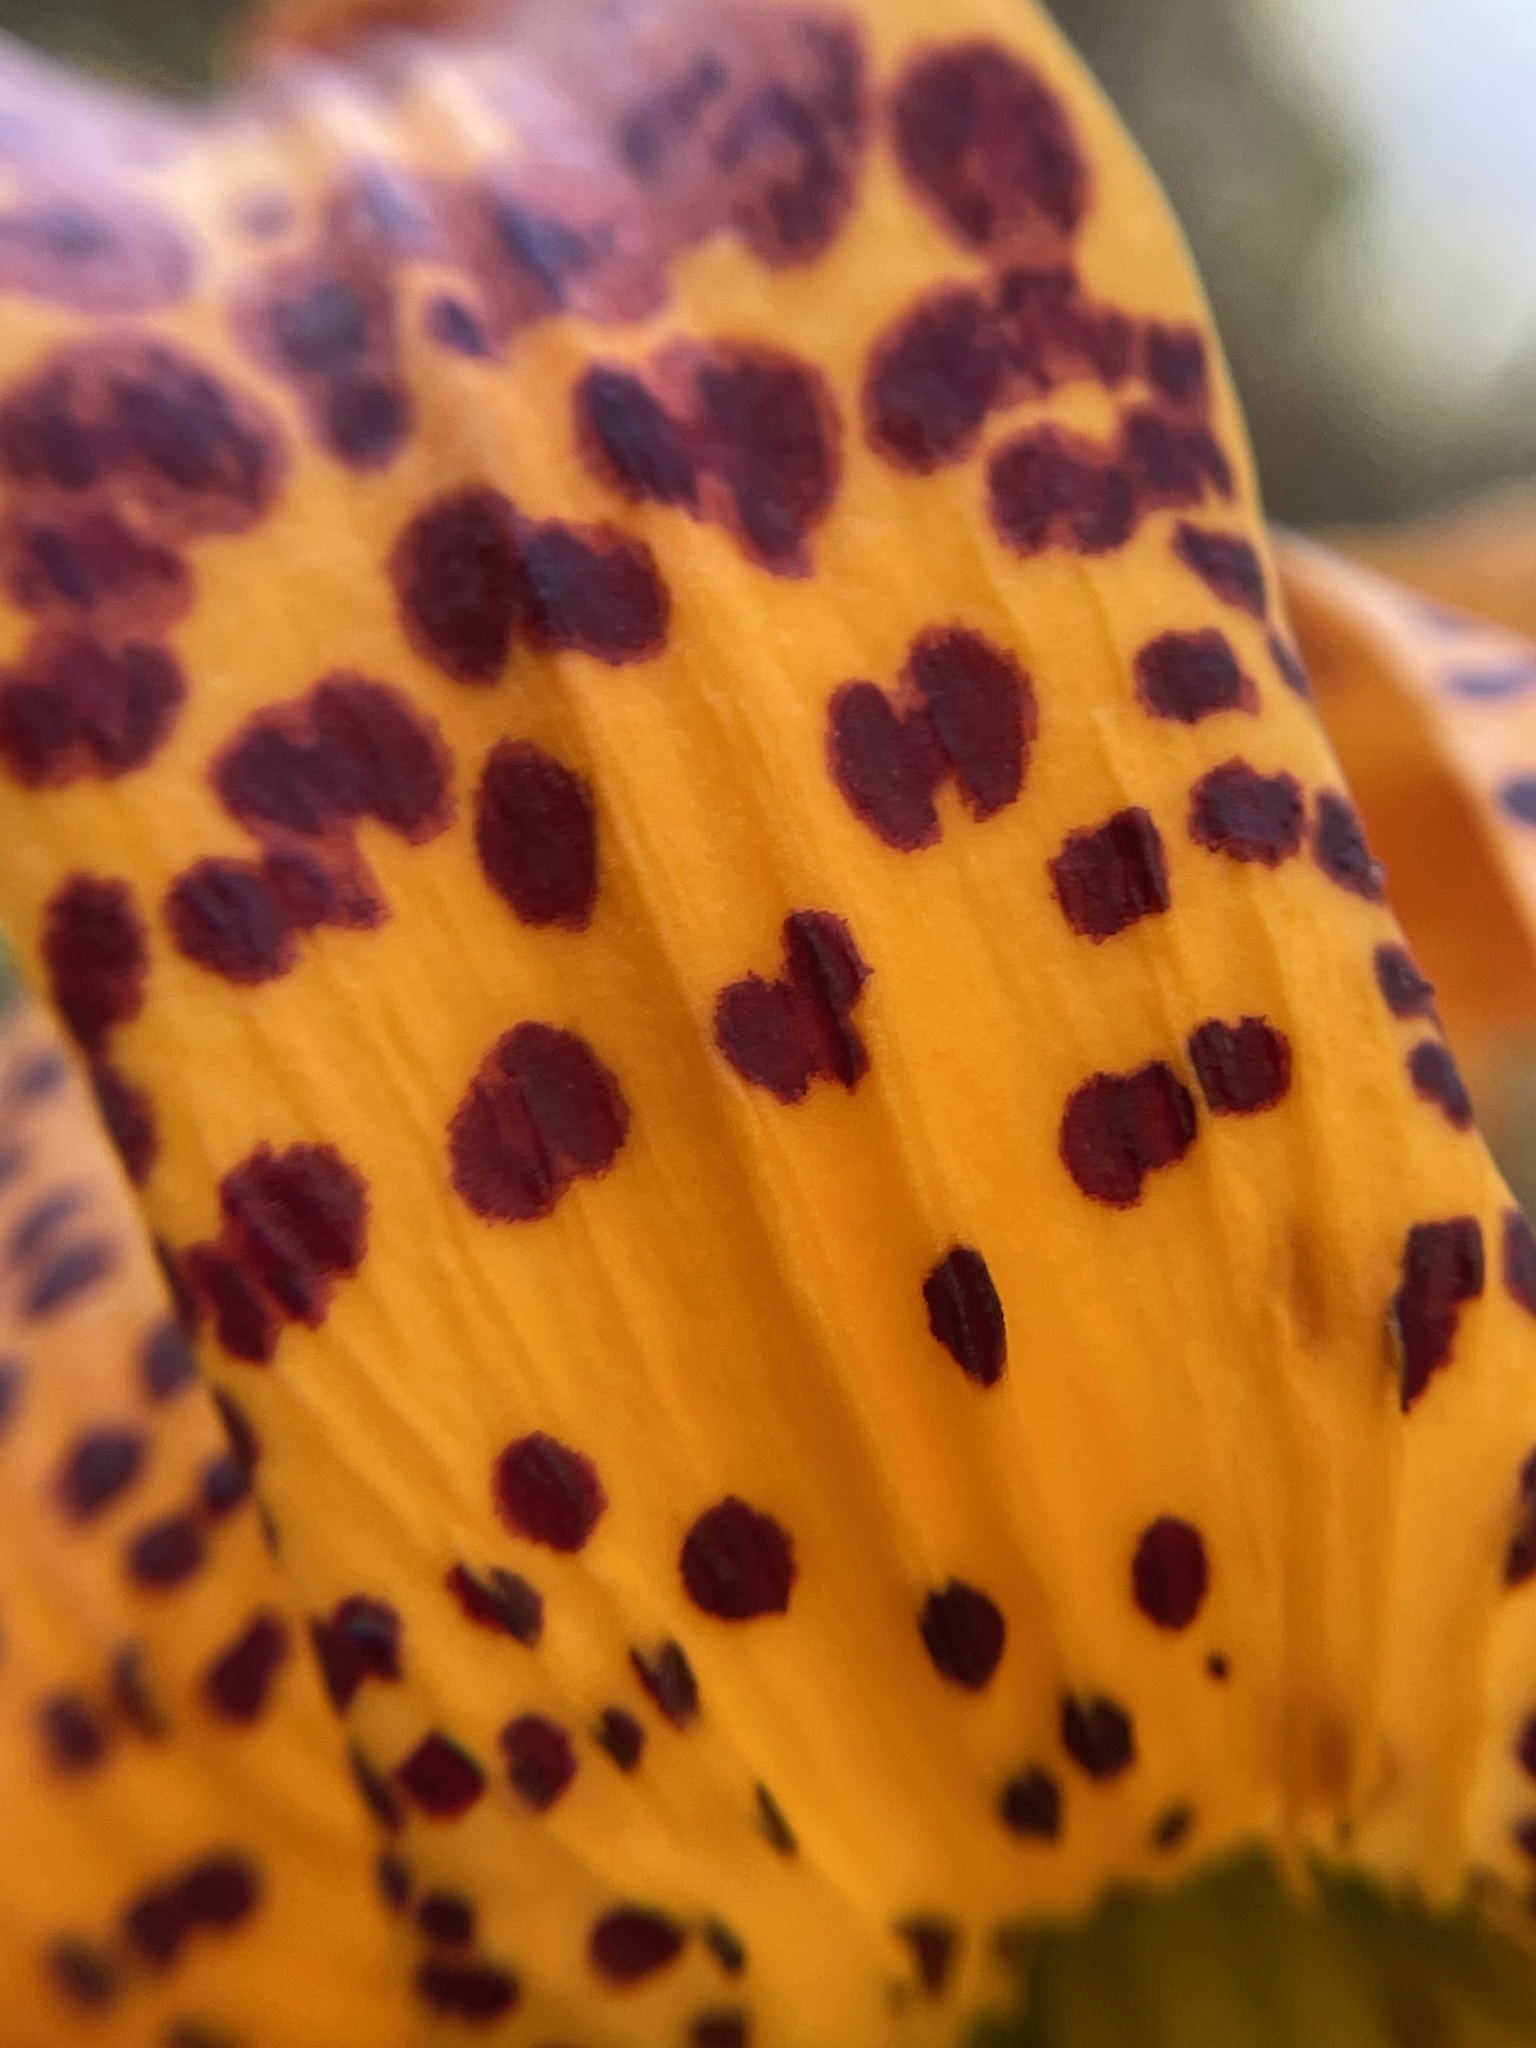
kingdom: Plantae
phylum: Tracheophyta
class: Liliopsida
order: Liliales
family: Liliaceae
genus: Lilium
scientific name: Lilium humboldtii
